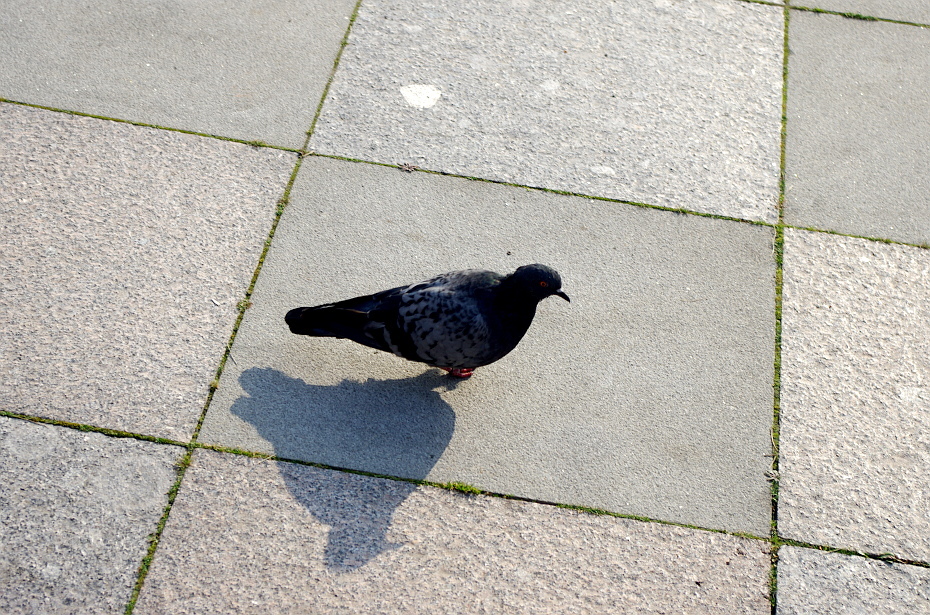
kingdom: Animalia
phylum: Chordata
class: Aves
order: Columbiformes
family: Columbidae
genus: Columba
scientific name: Columba livia
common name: Rock pigeon
